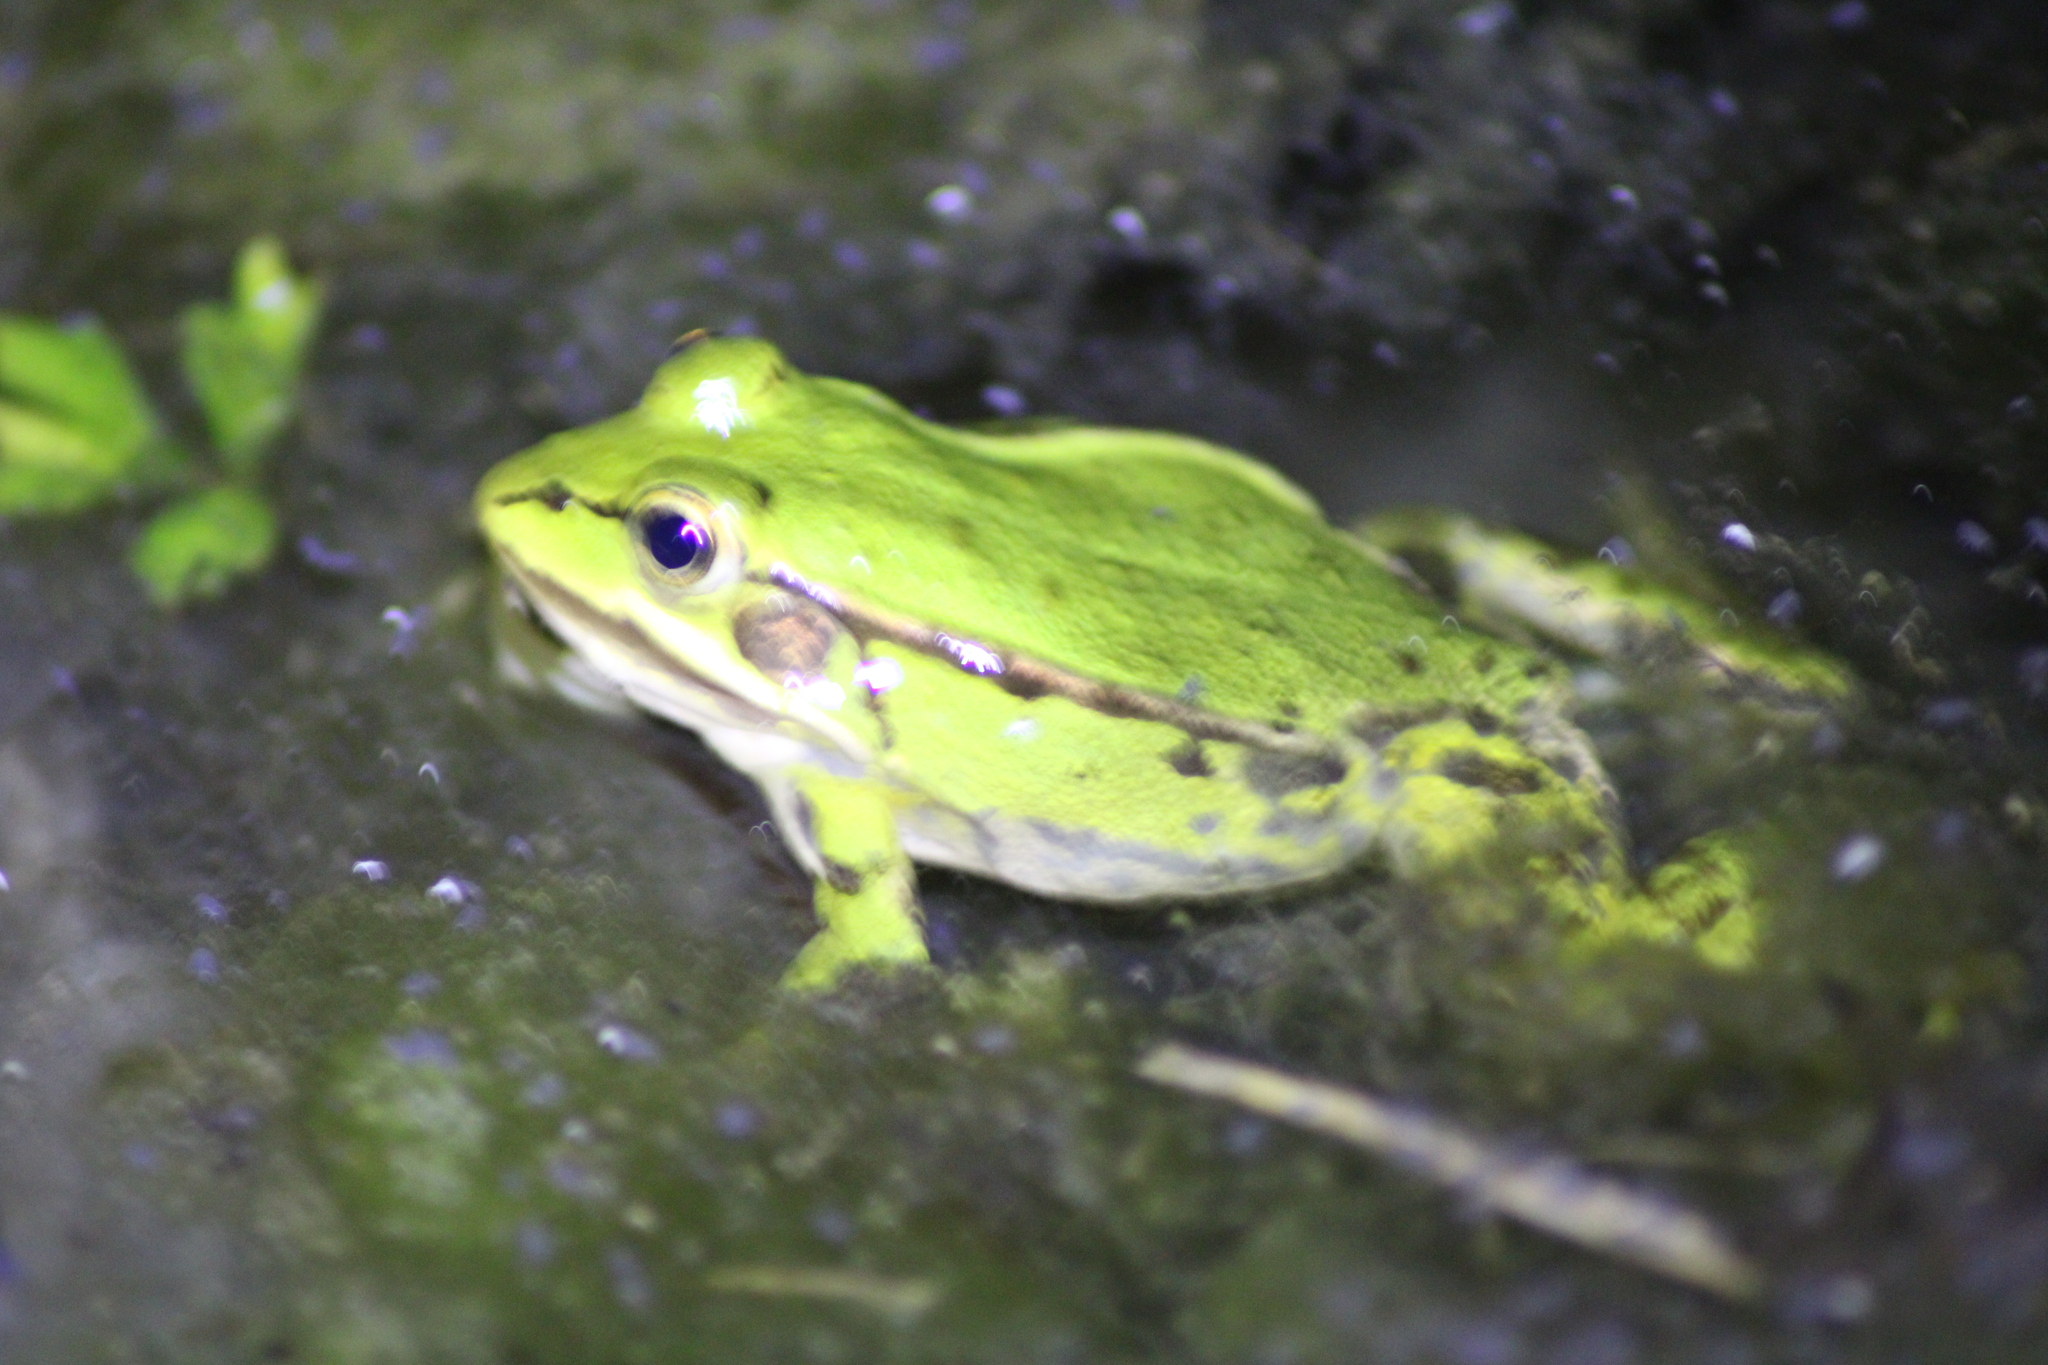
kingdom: Animalia
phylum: Chordata
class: Amphibia
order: Anura
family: Ranidae
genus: Pelophylax
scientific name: Pelophylax
